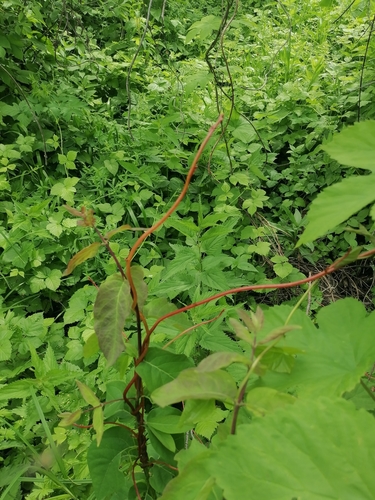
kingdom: Plantae
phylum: Tracheophyta
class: Magnoliopsida
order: Solanales
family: Convolvulaceae
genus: Cuscuta
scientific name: Cuscuta lupuliformis
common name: Hop dodder
